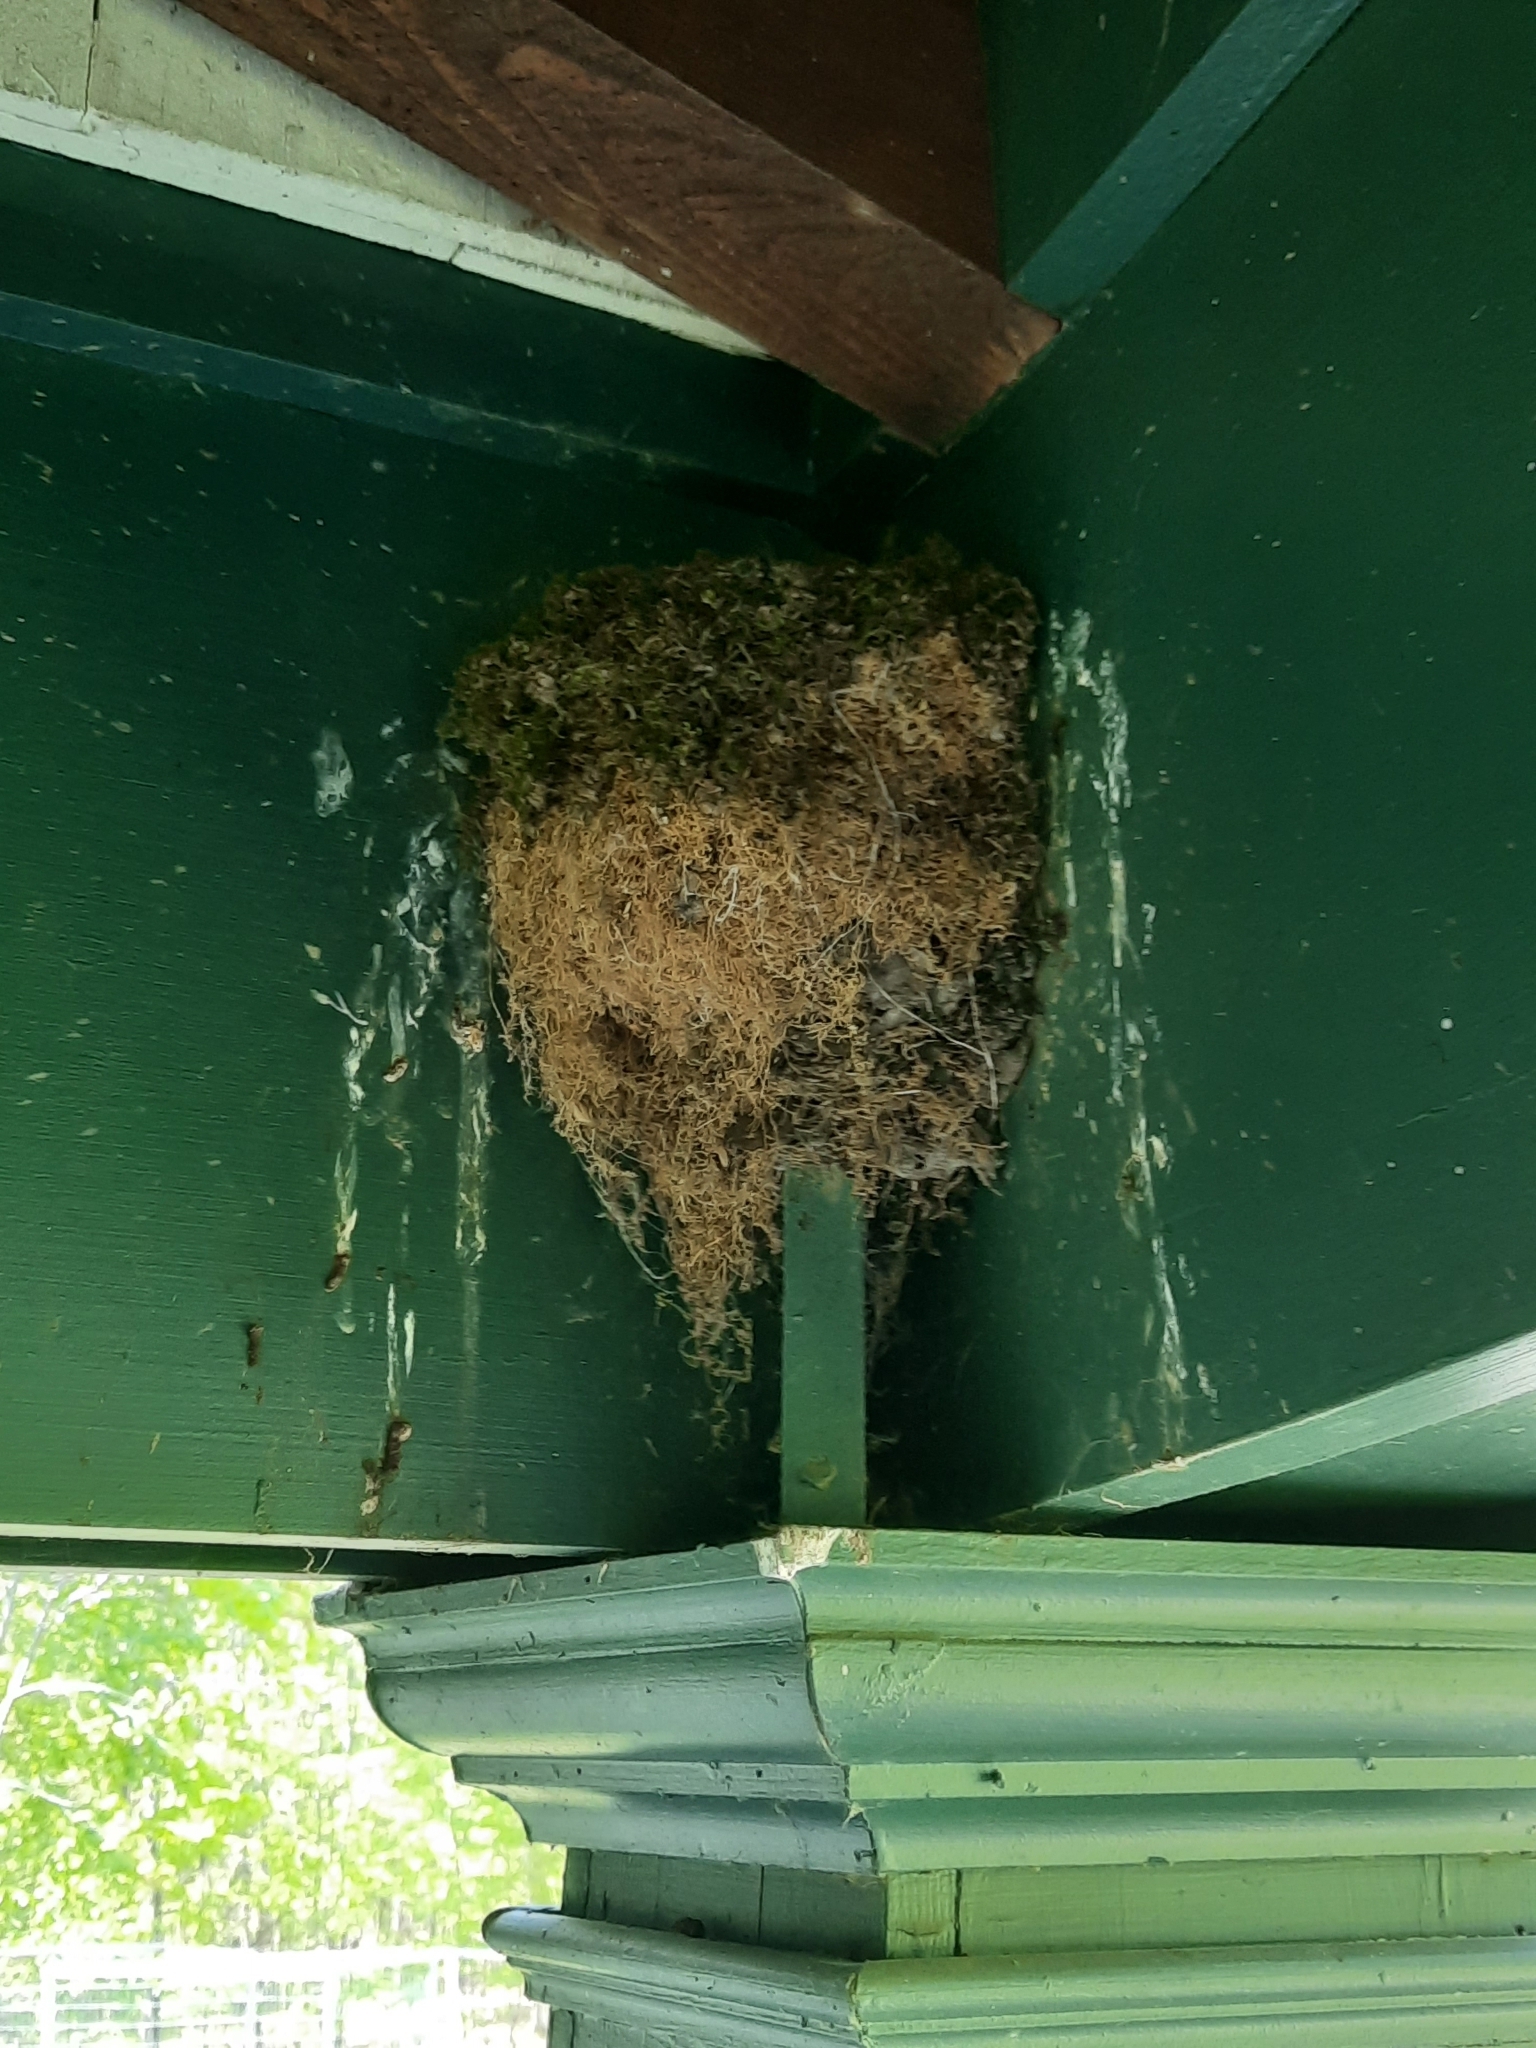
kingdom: Animalia
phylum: Chordata
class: Aves
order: Passeriformes
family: Tyrannidae
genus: Sayornis
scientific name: Sayornis phoebe
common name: Eastern phoebe
